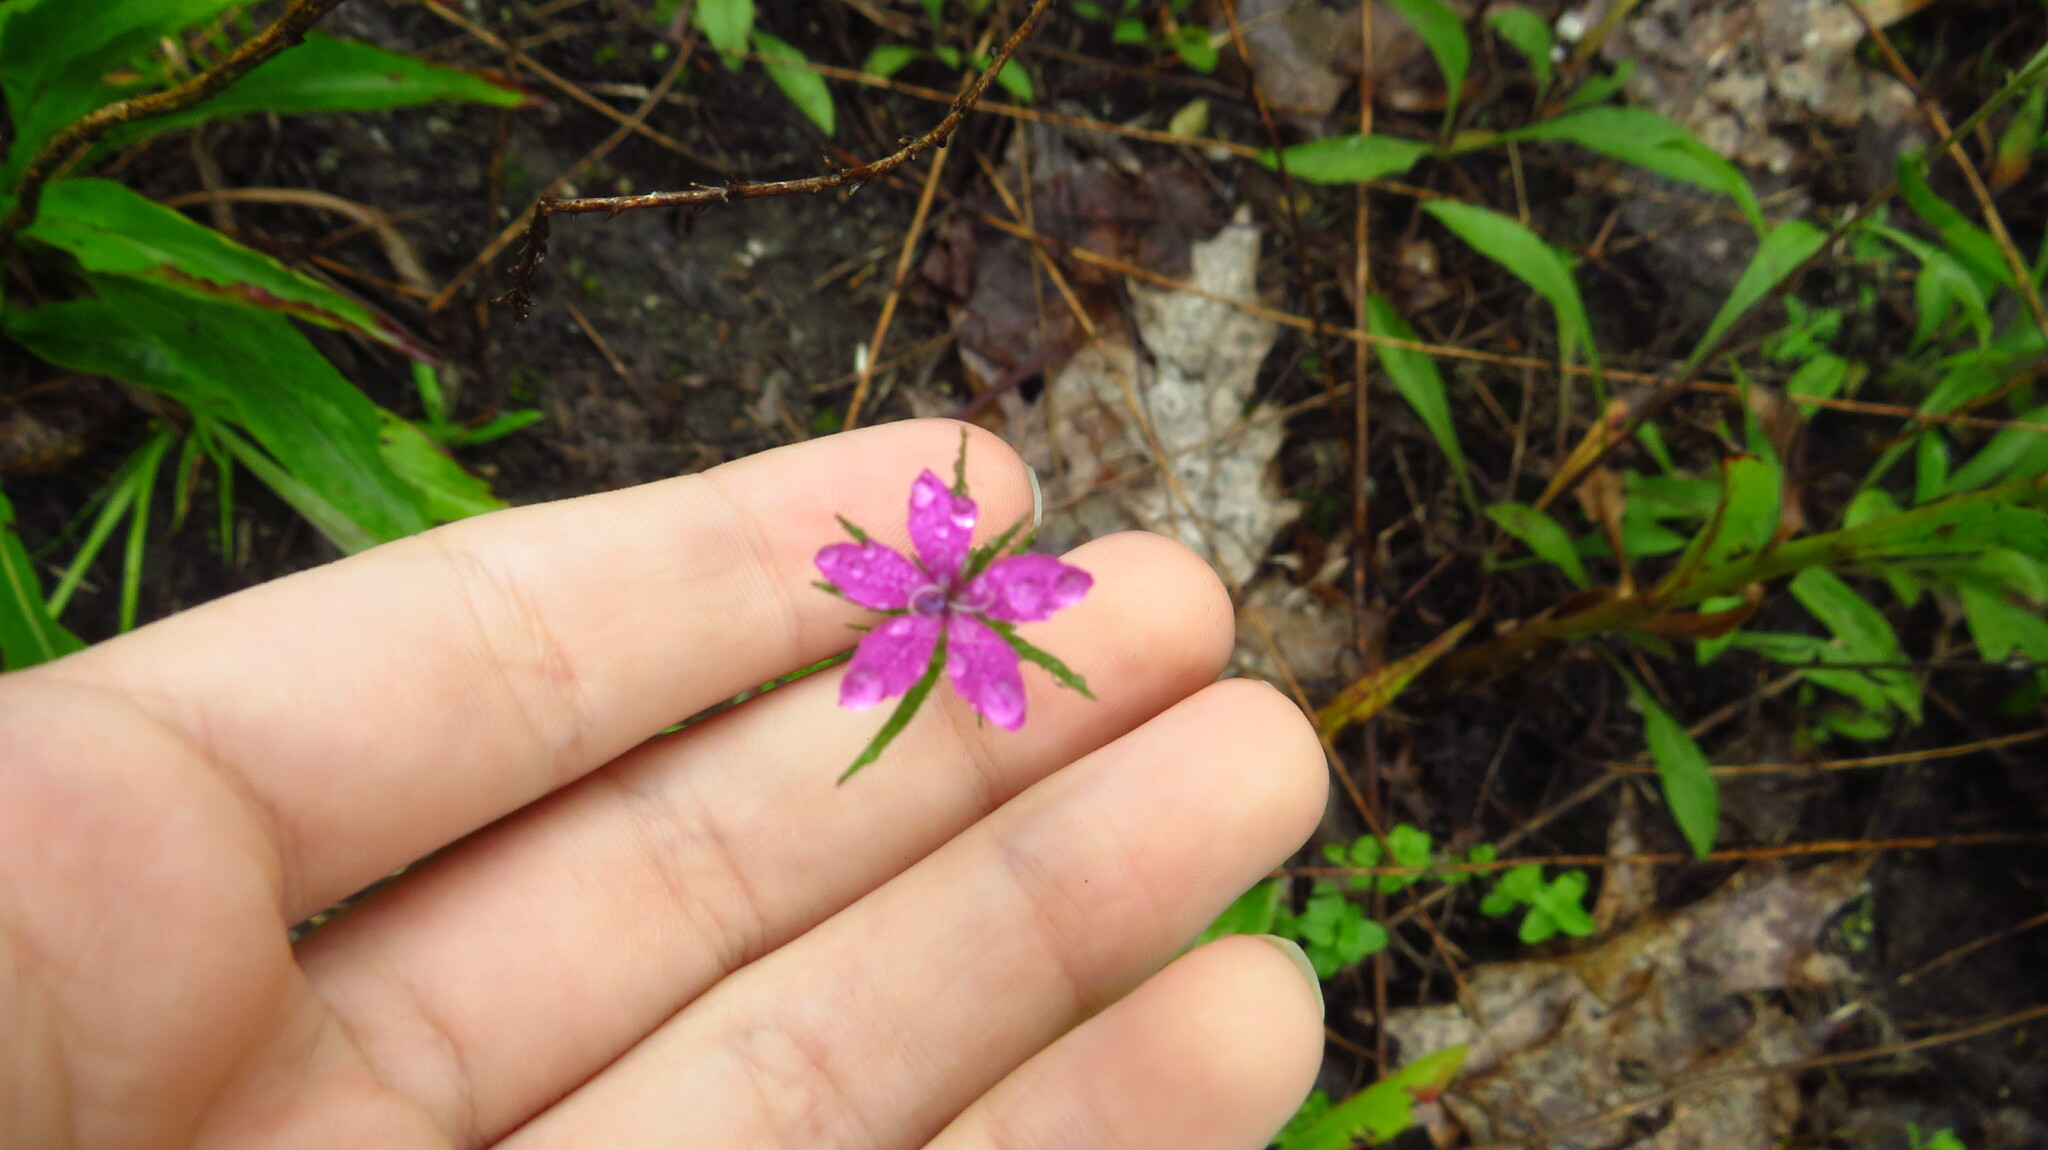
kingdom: Plantae
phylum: Tracheophyta
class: Magnoliopsida
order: Caryophyllales
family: Caryophyllaceae
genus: Dianthus
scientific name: Dianthus armeria
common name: Deptford pink
